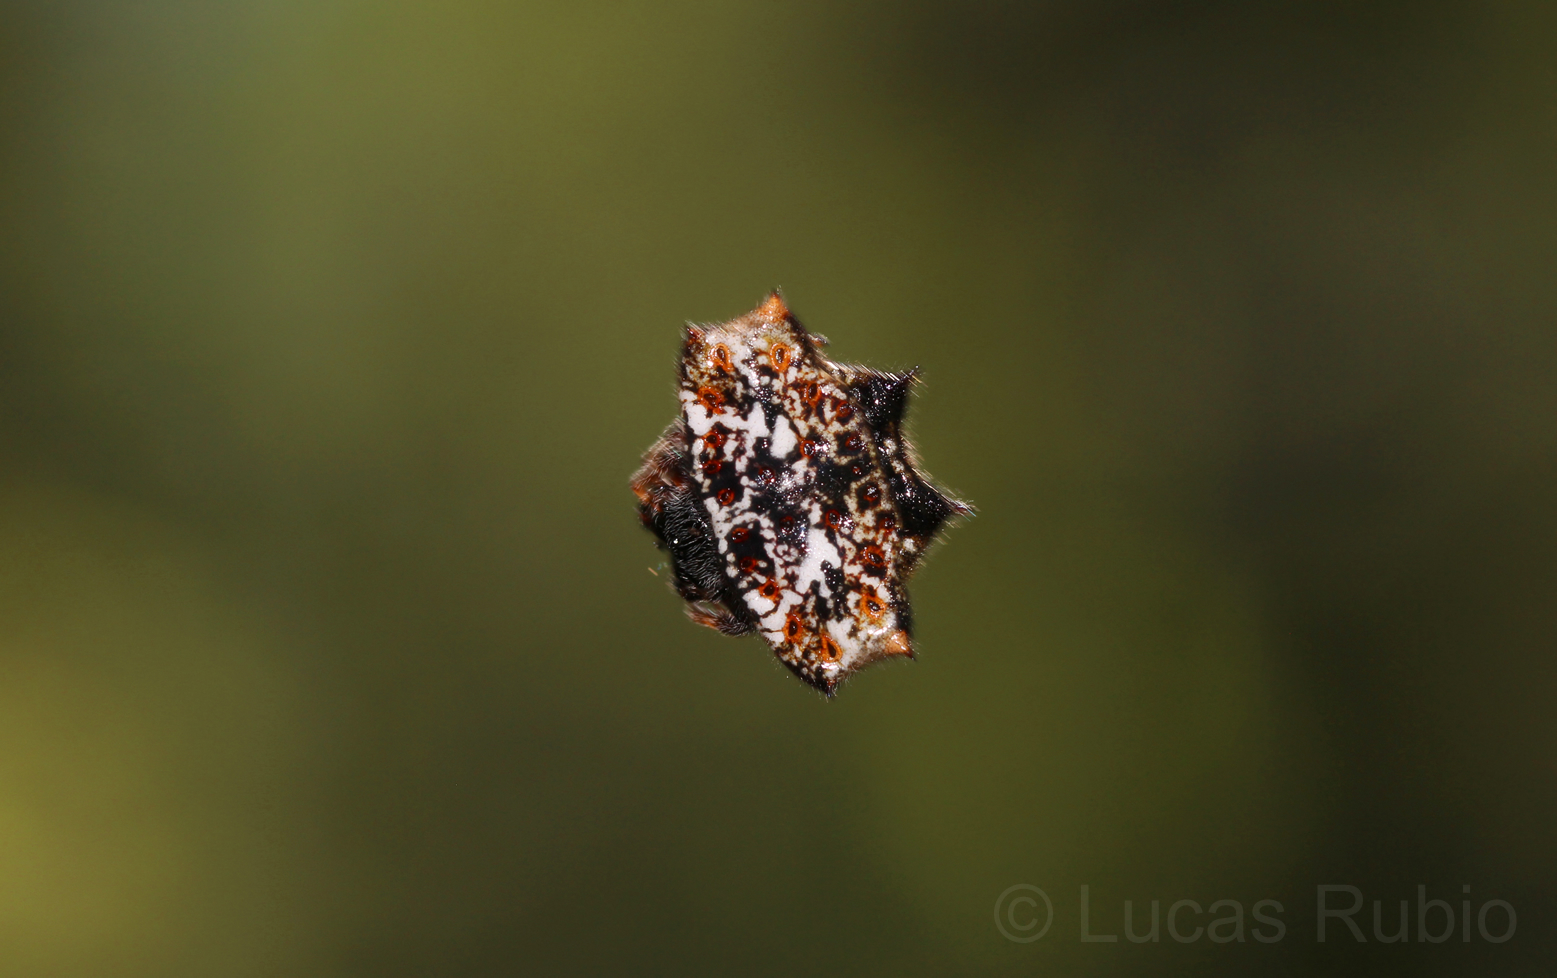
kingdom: Animalia
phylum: Arthropoda
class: Arachnida
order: Araneae
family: Araneidae
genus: Gasteracantha
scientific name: Gasteracantha cancriformis
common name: Orb weavers
